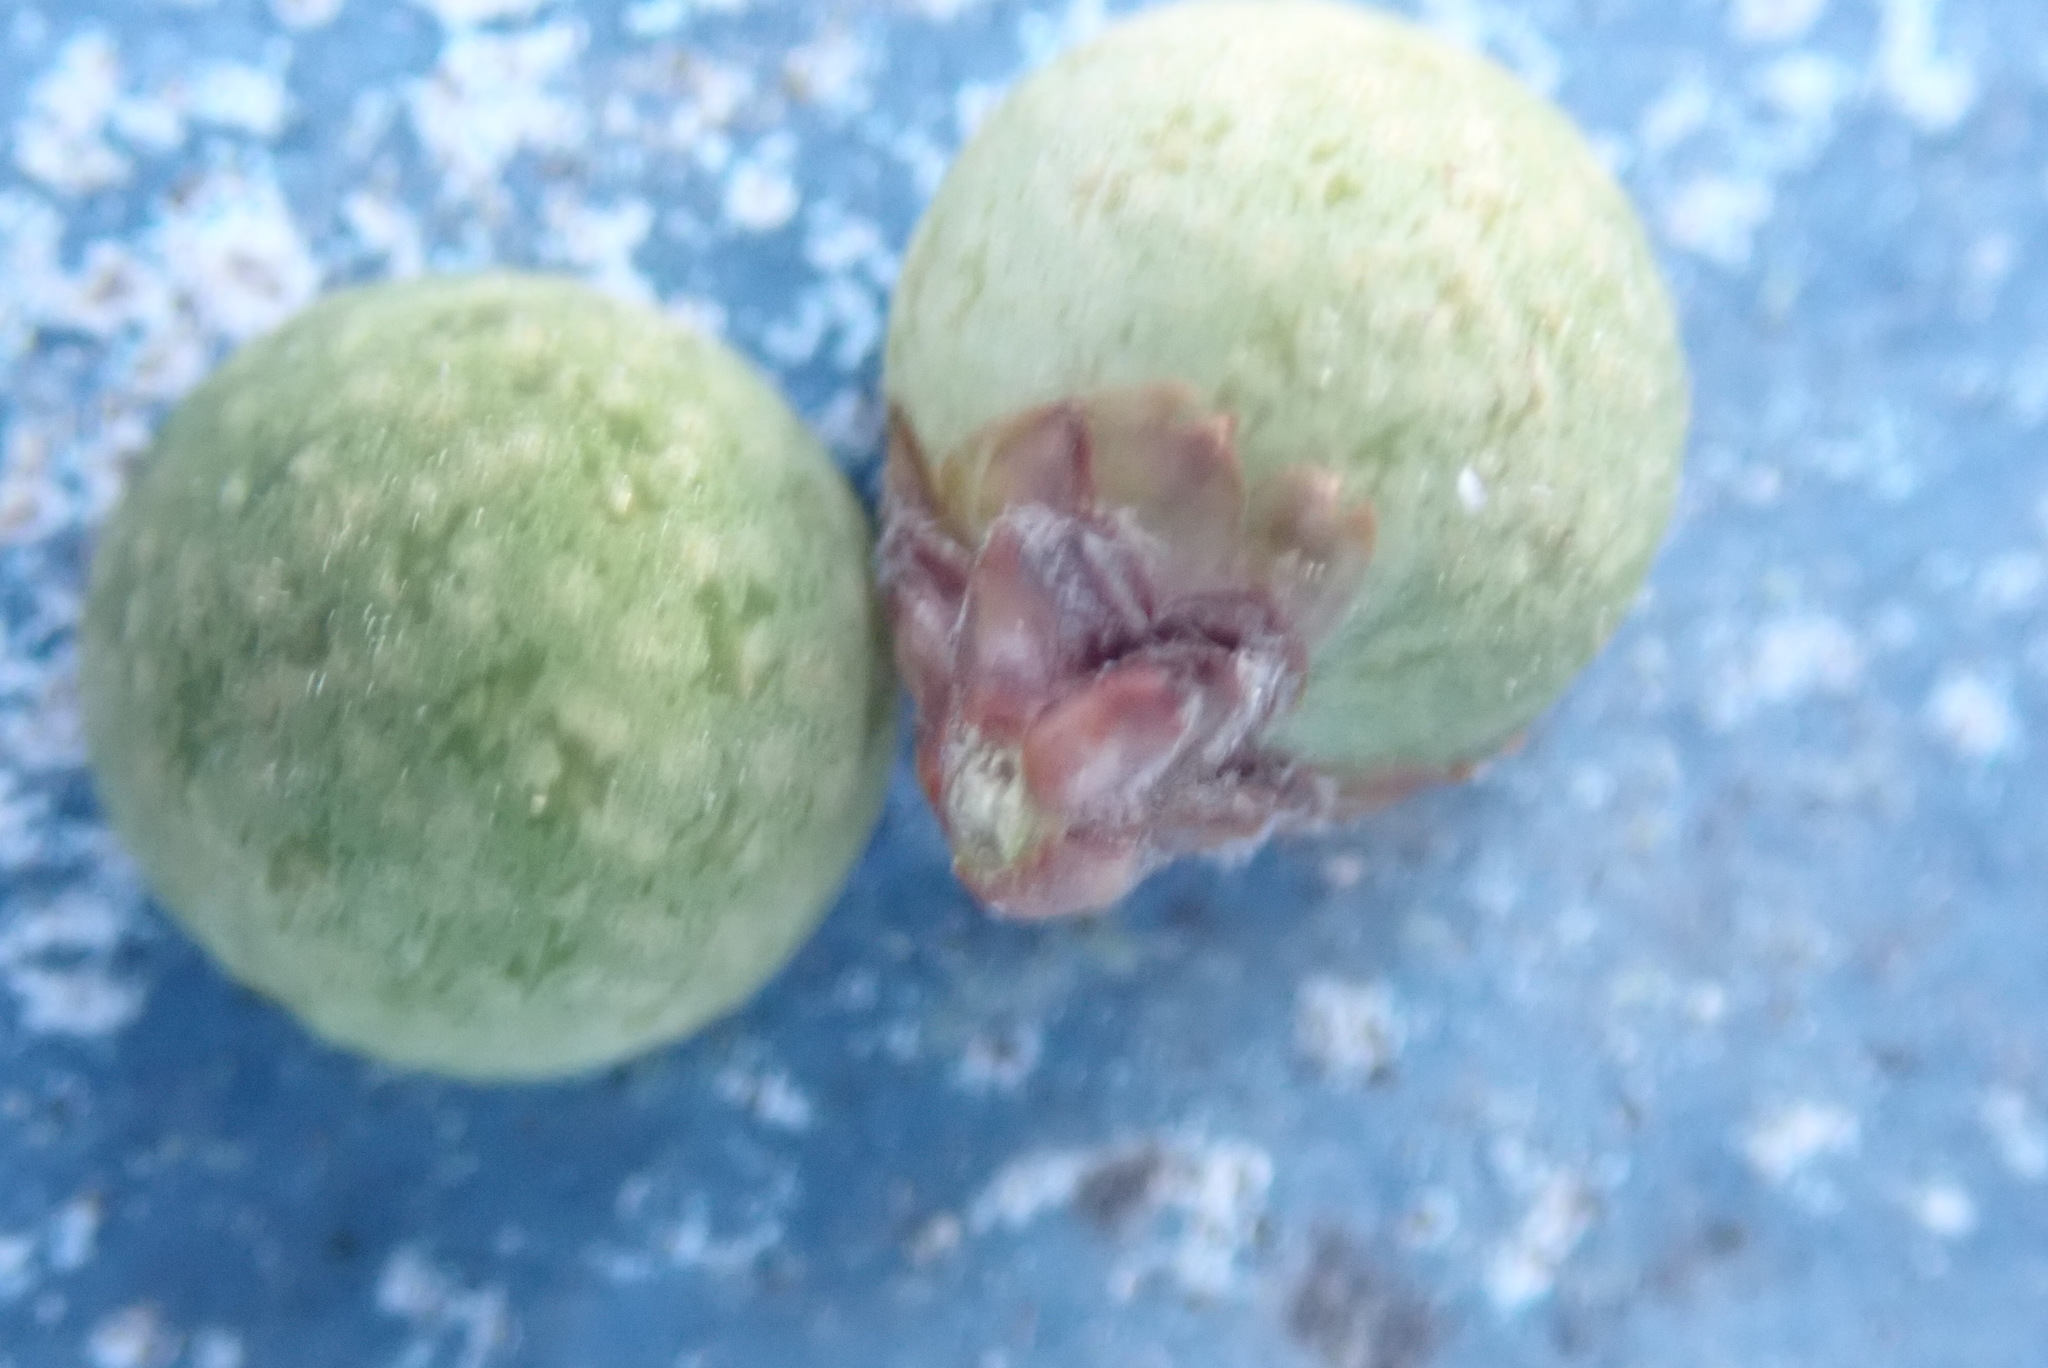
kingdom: Animalia
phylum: Arthropoda
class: Insecta
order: Hymenoptera
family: Cynipidae
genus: Callirhytis
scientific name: Callirhytis
